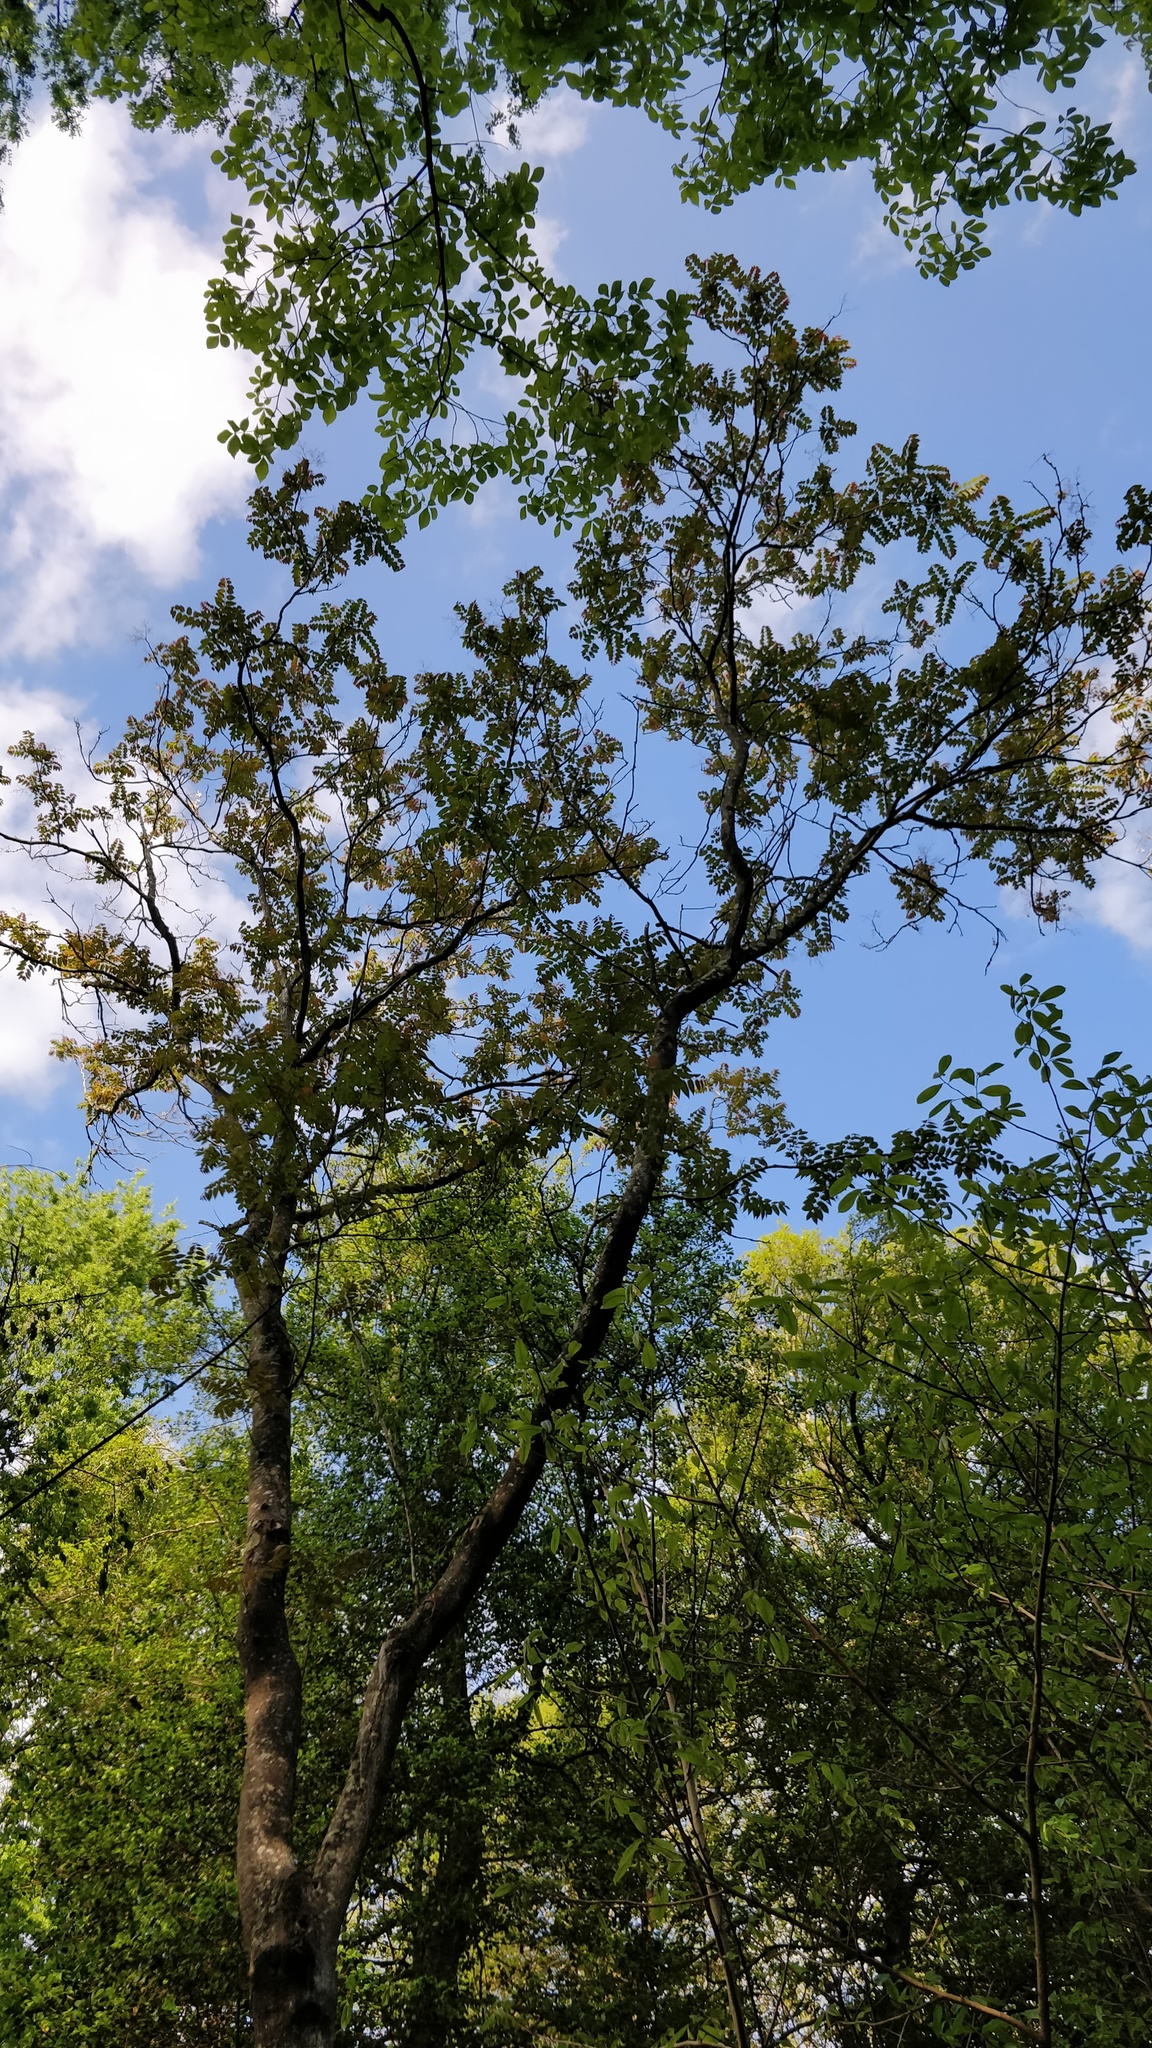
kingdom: Plantae
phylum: Tracheophyta
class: Magnoliopsida
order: Sapindales
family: Simaroubaceae
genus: Ailanthus
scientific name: Ailanthus altissima
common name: Tree-of-heaven
